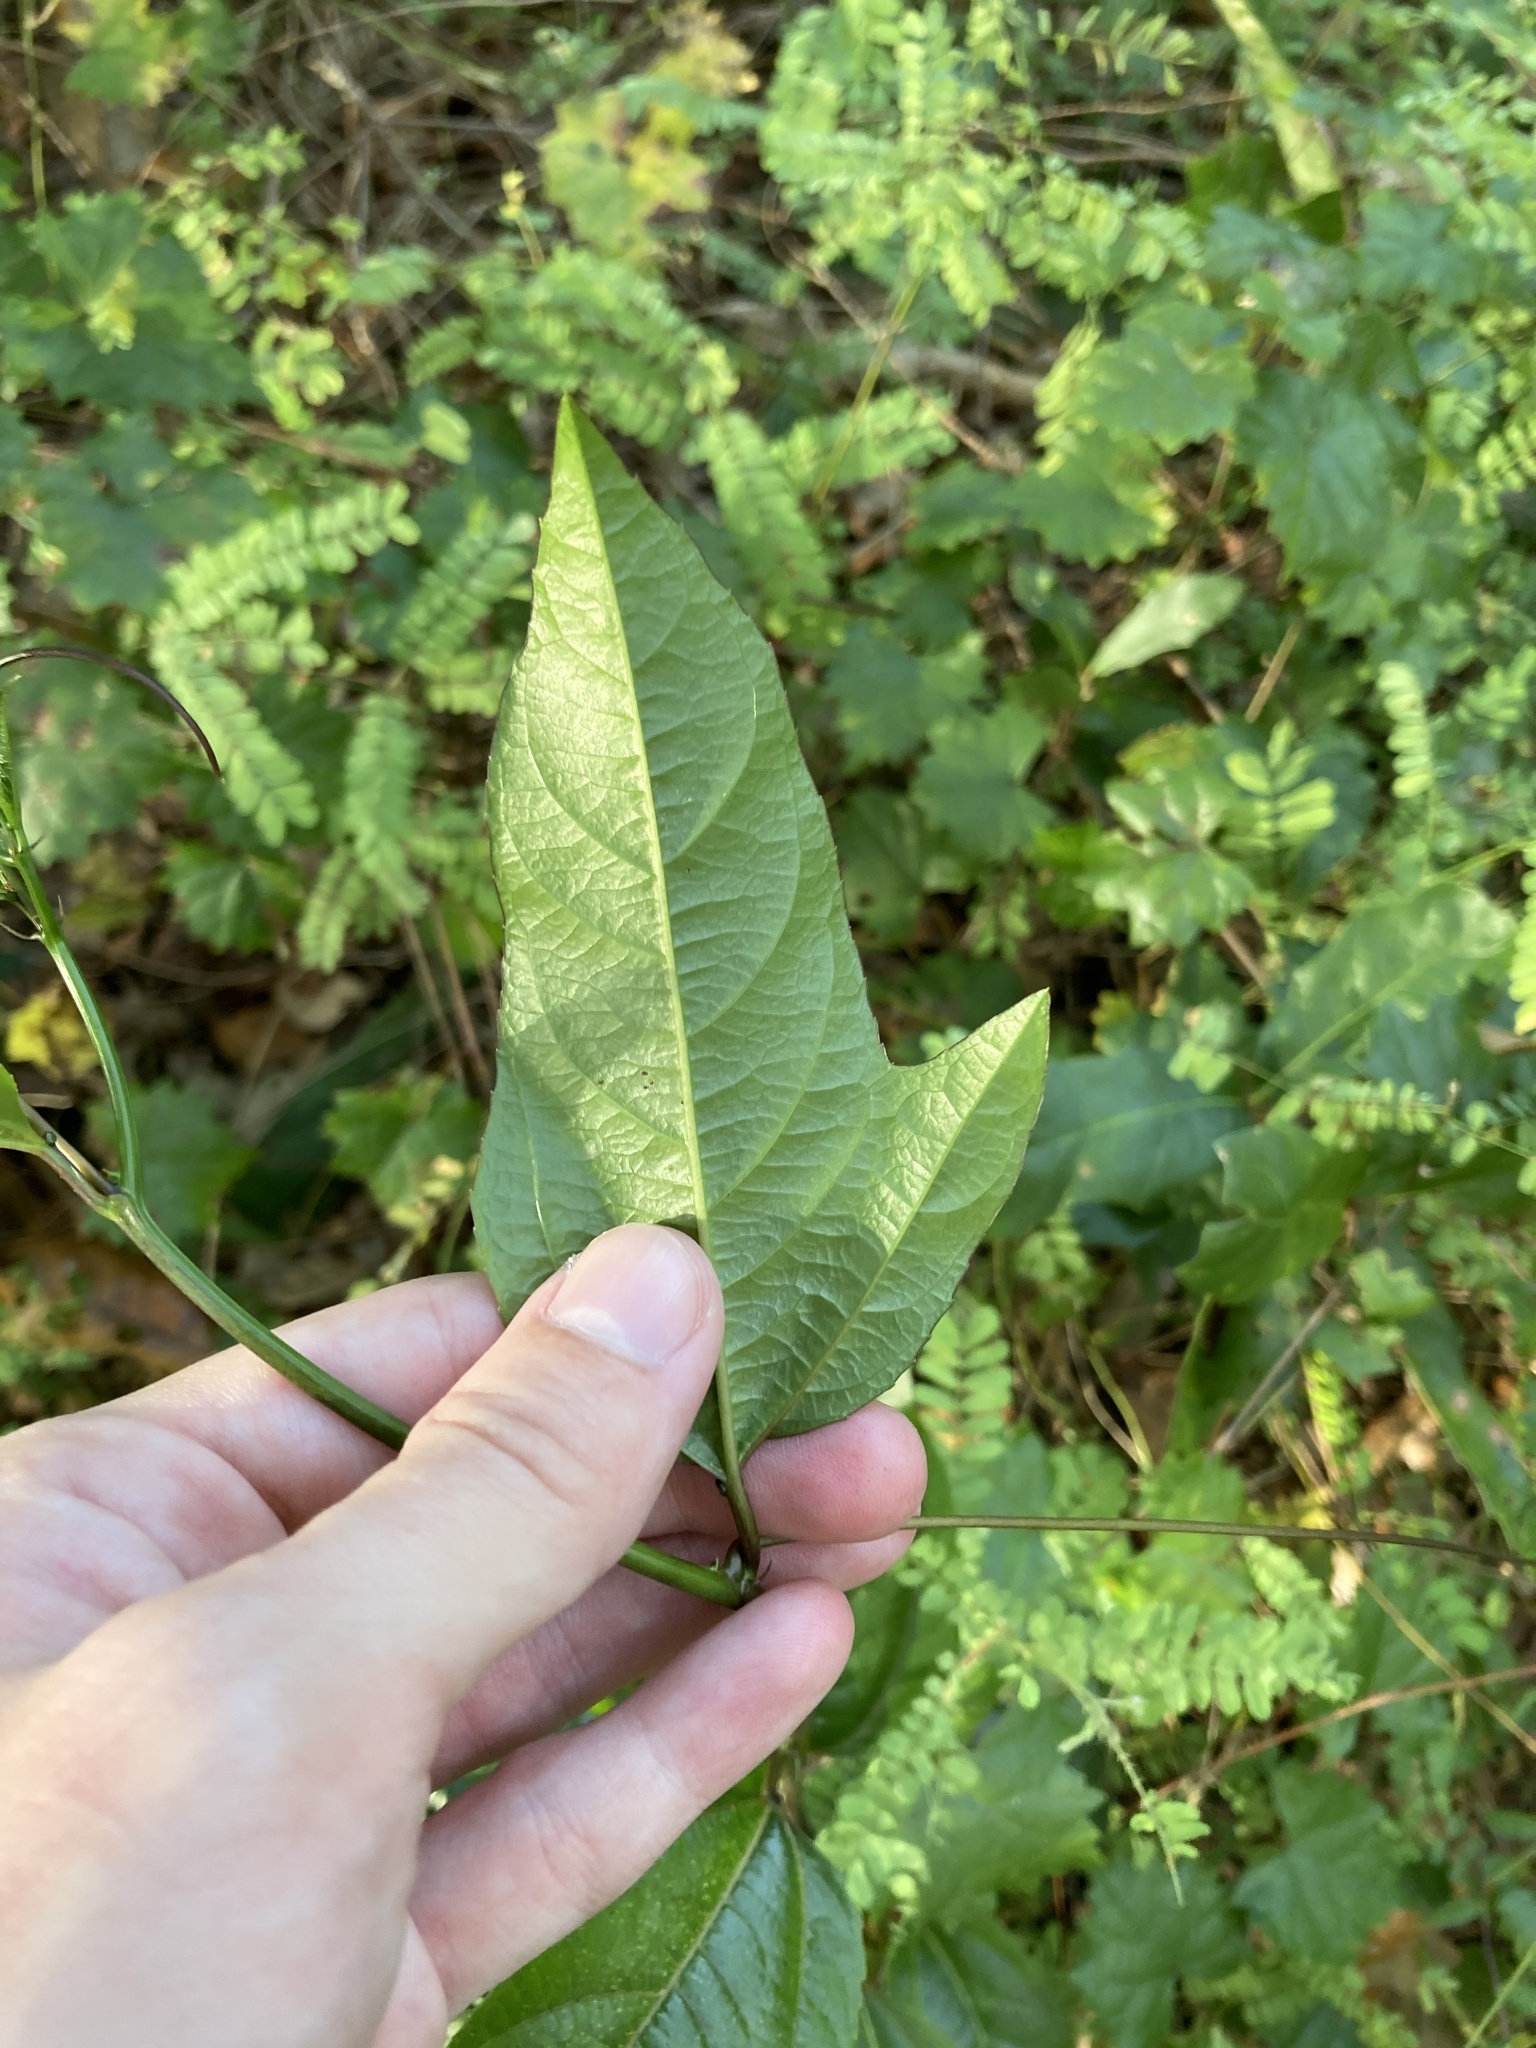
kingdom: Plantae
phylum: Tracheophyta
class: Magnoliopsida
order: Malpighiales
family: Passifloraceae
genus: Passiflora
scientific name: Passiflora edulis
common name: Purple granadilla
